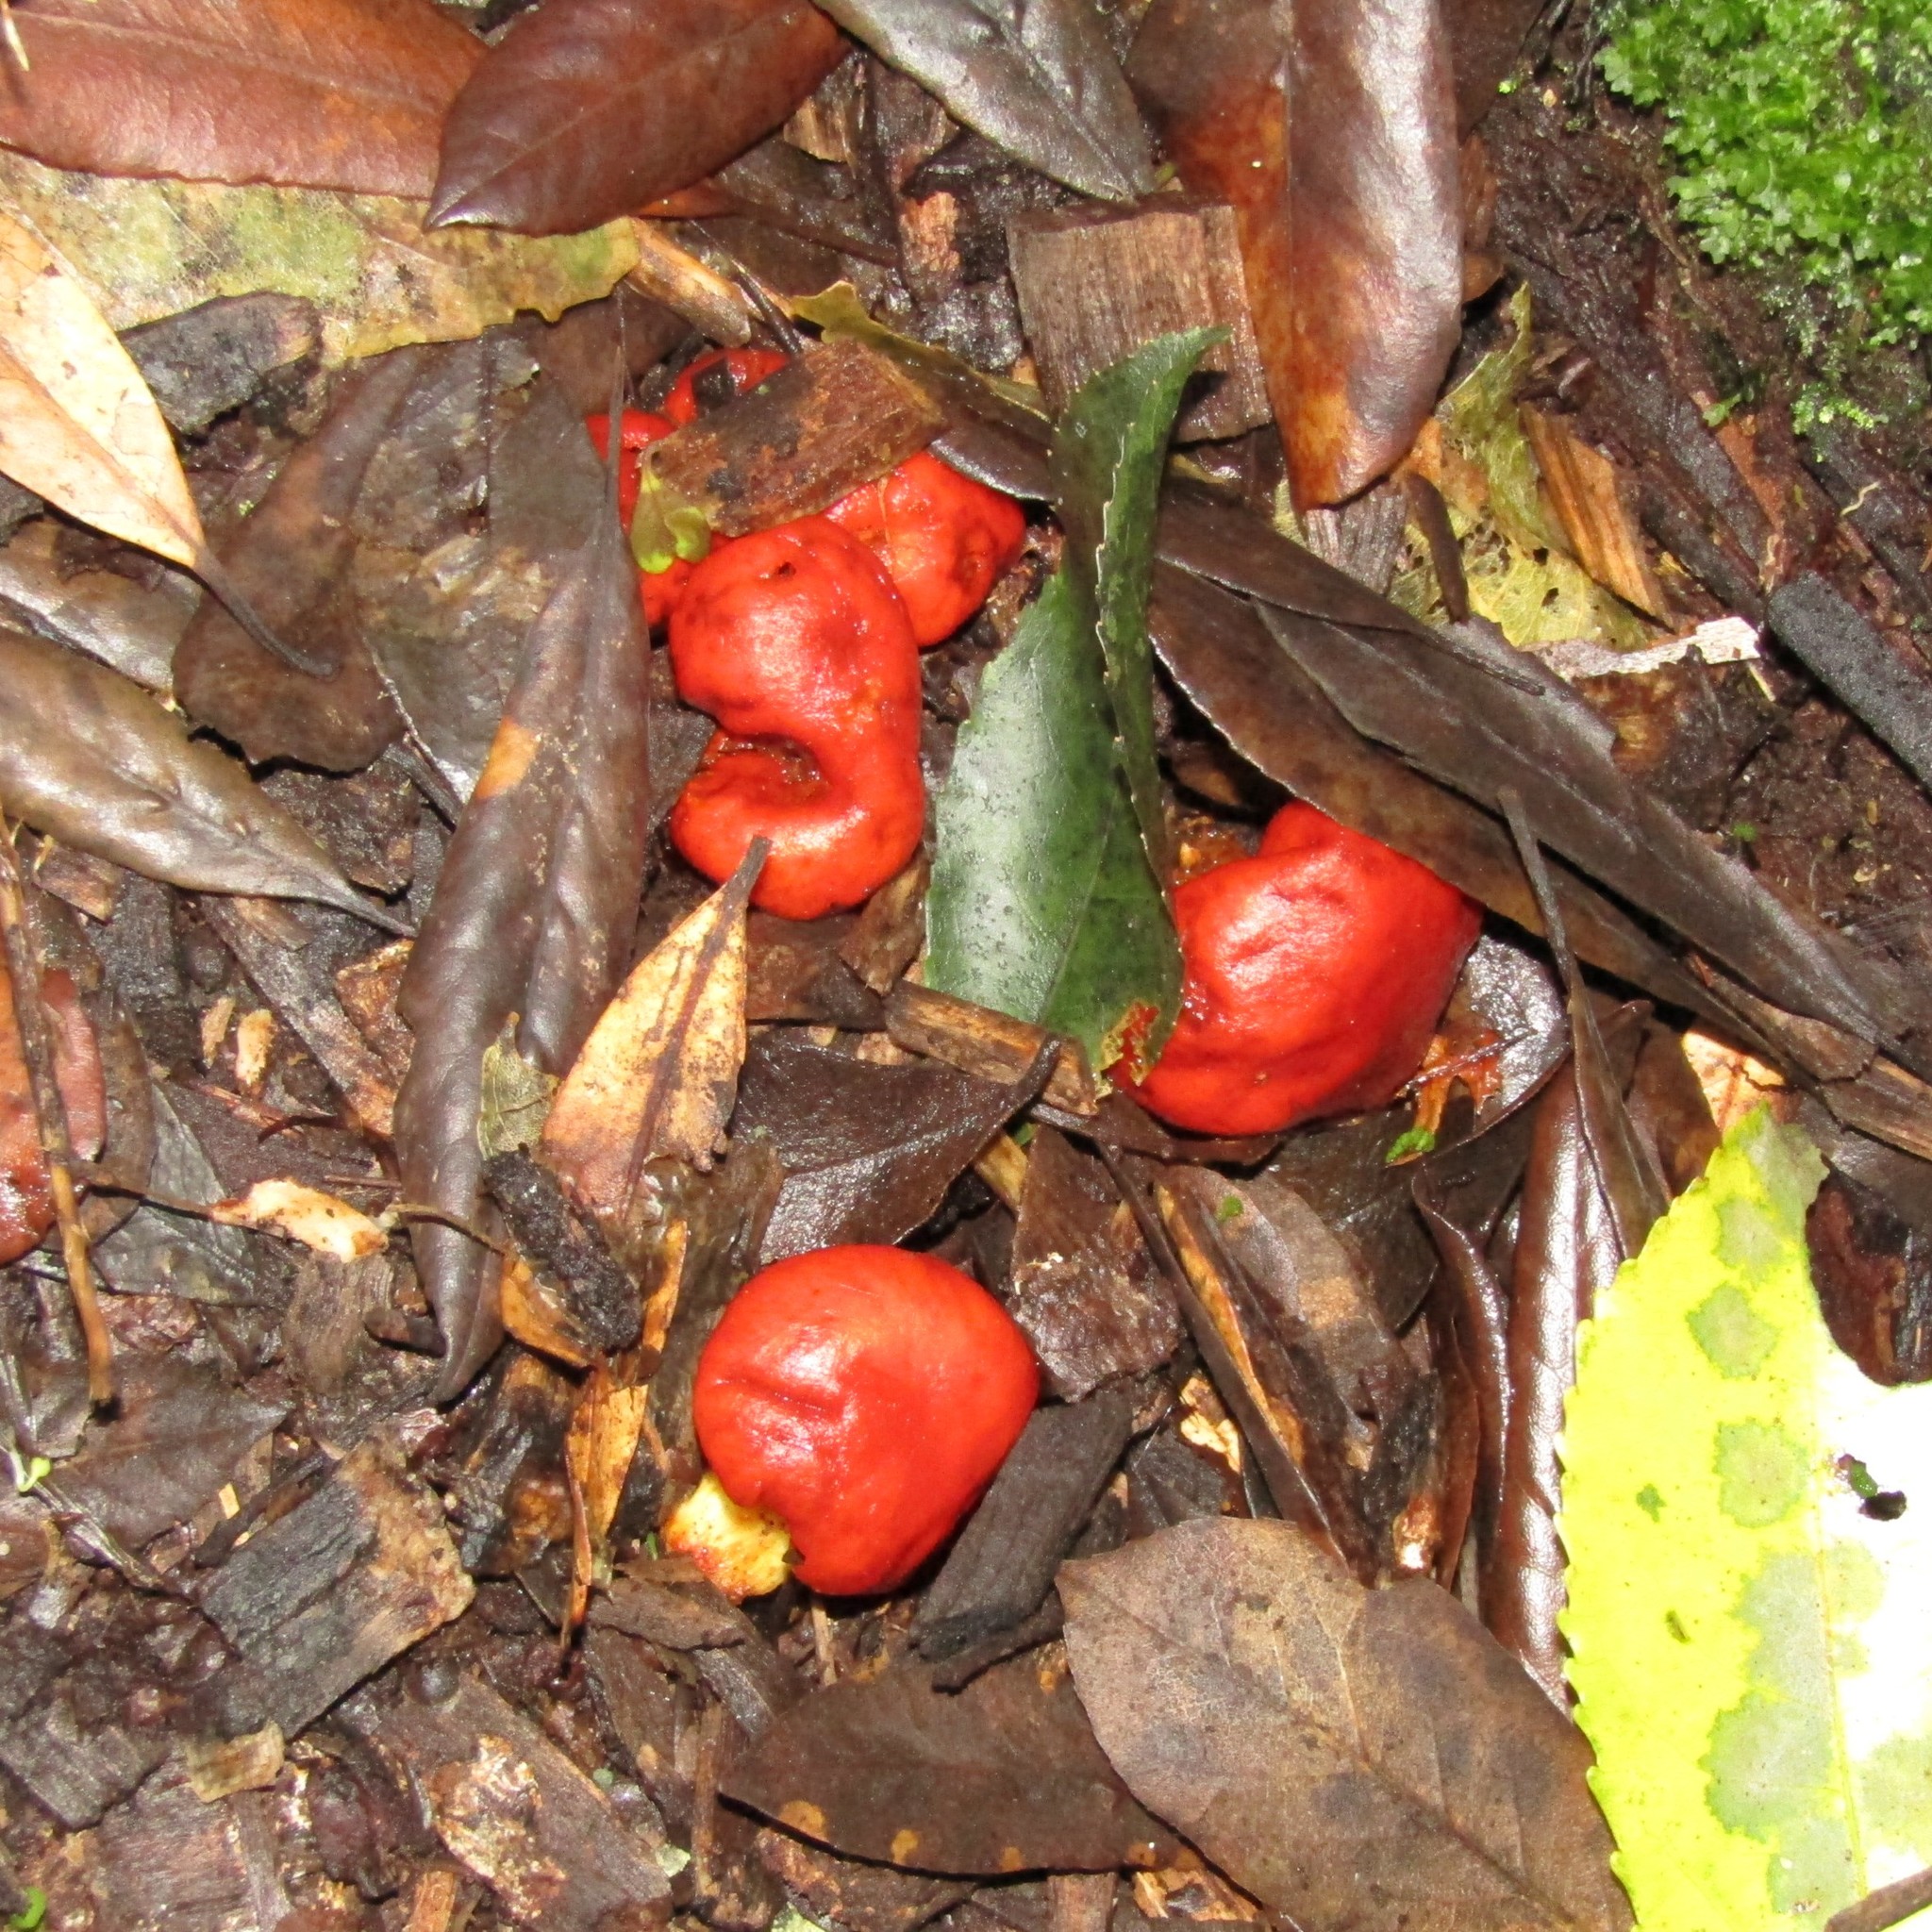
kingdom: Fungi
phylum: Basidiomycota
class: Agaricomycetes
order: Agaricales
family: Strophariaceae
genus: Leratiomyces
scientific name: Leratiomyces erythrocephalus
